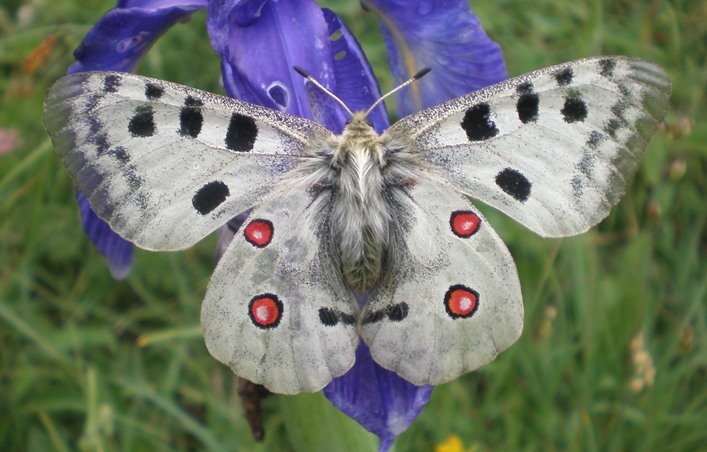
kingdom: Animalia
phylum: Arthropoda
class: Insecta
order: Lepidoptera
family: Papilionidae
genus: Parnassius
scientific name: Parnassius apollo
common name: Apollo
